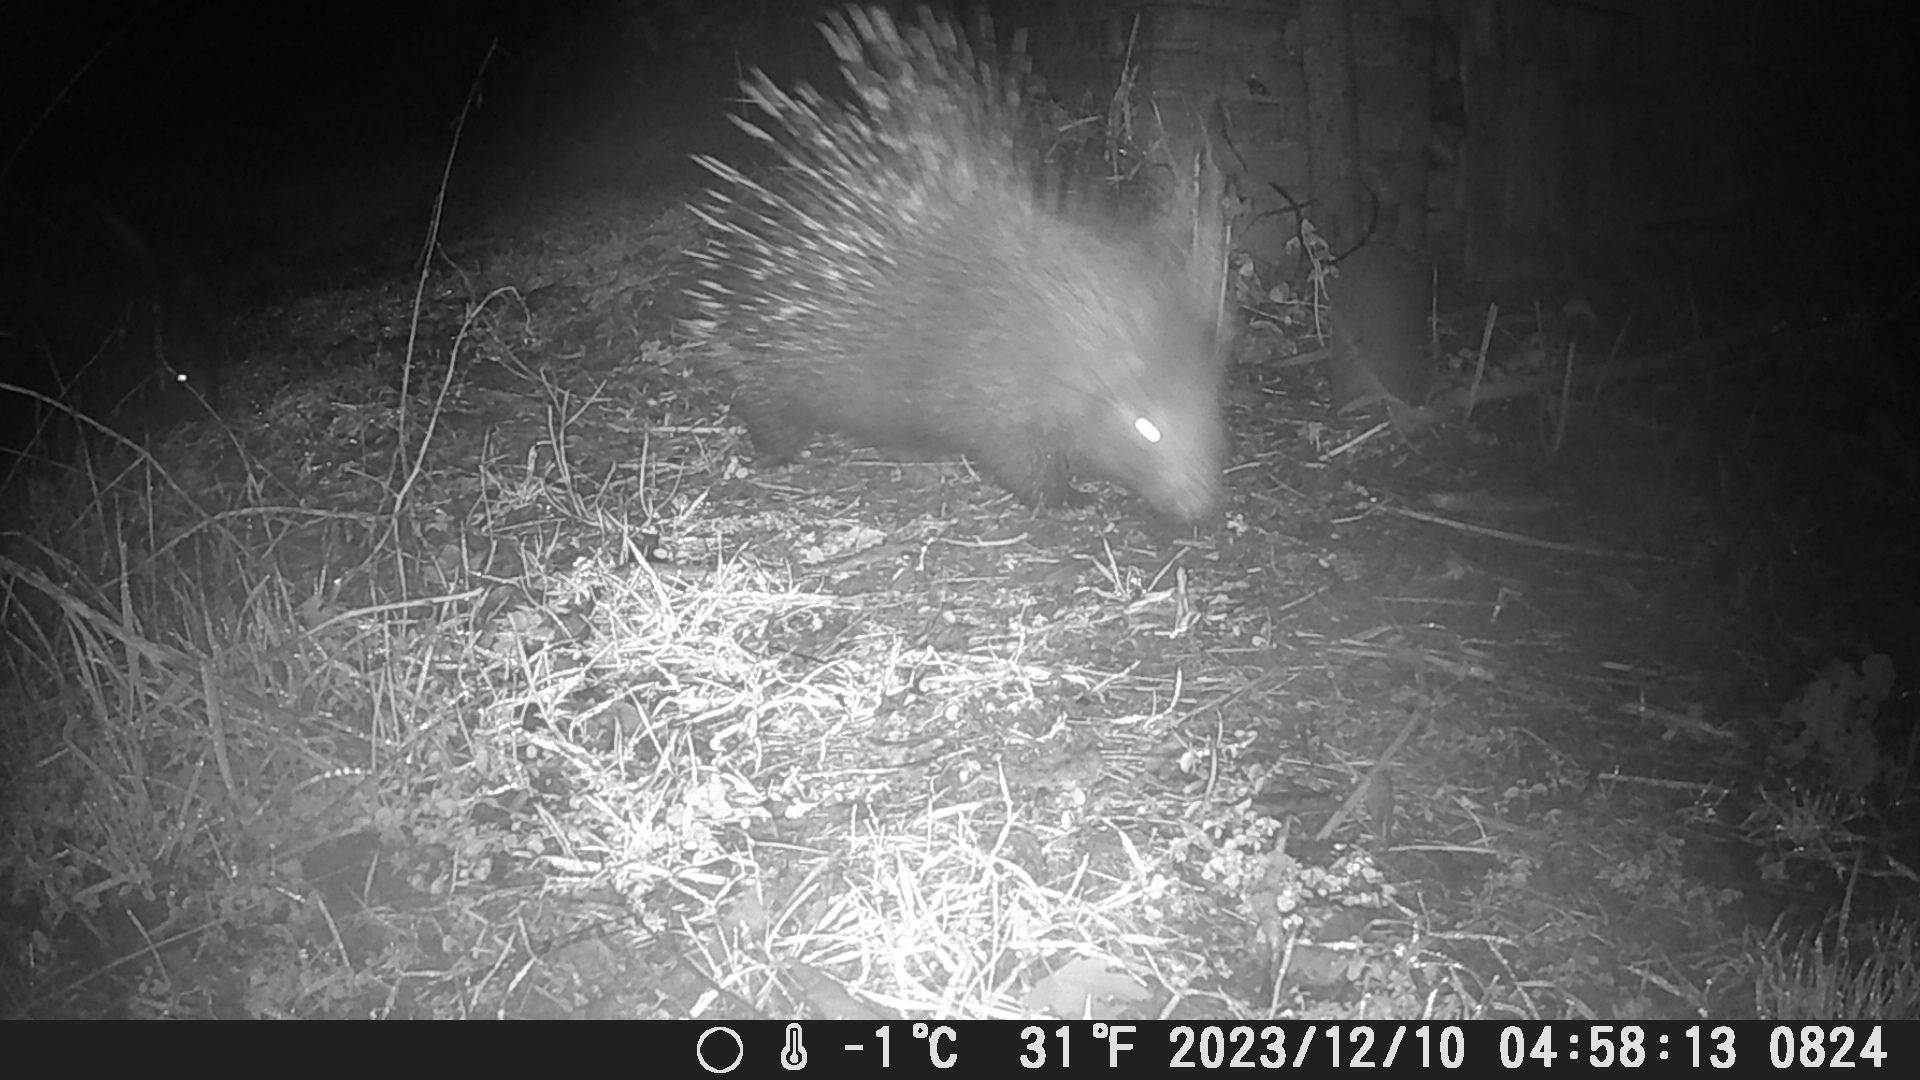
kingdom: Animalia
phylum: Chordata
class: Mammalia
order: Rodentia
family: Hystricidae
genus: Hystrix
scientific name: Hystrix cristata
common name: Crested porcupine
